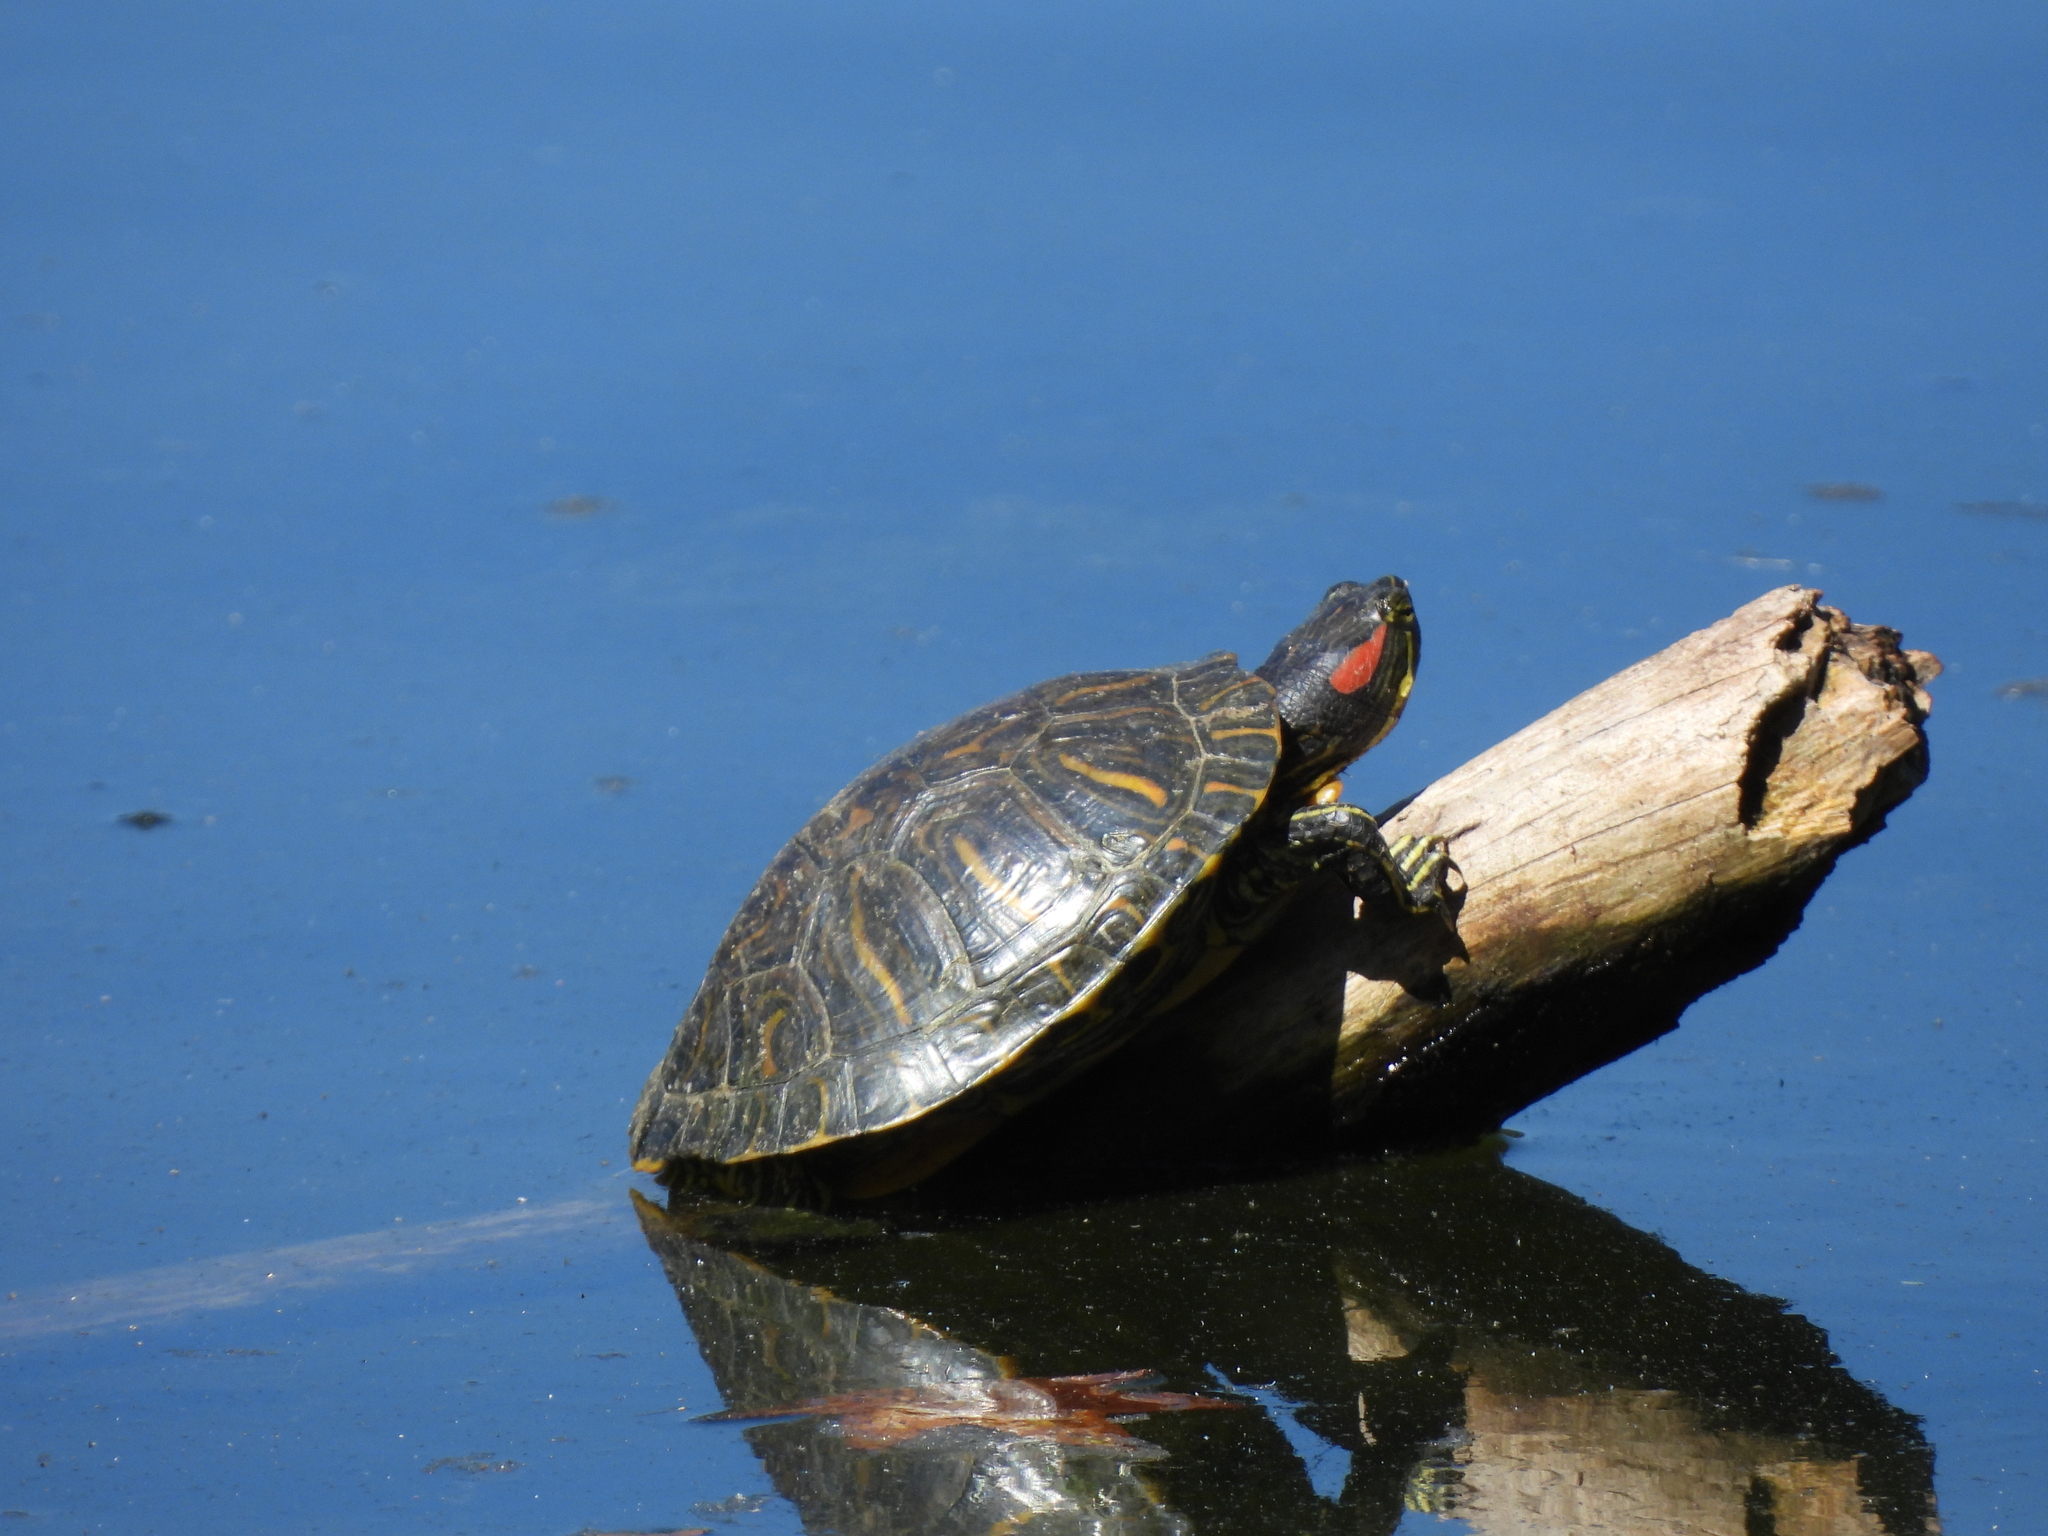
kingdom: Animalia
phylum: Chordata
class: Testudines
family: Emydidae
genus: Trachemys
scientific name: Trachemys scripta
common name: Slider
